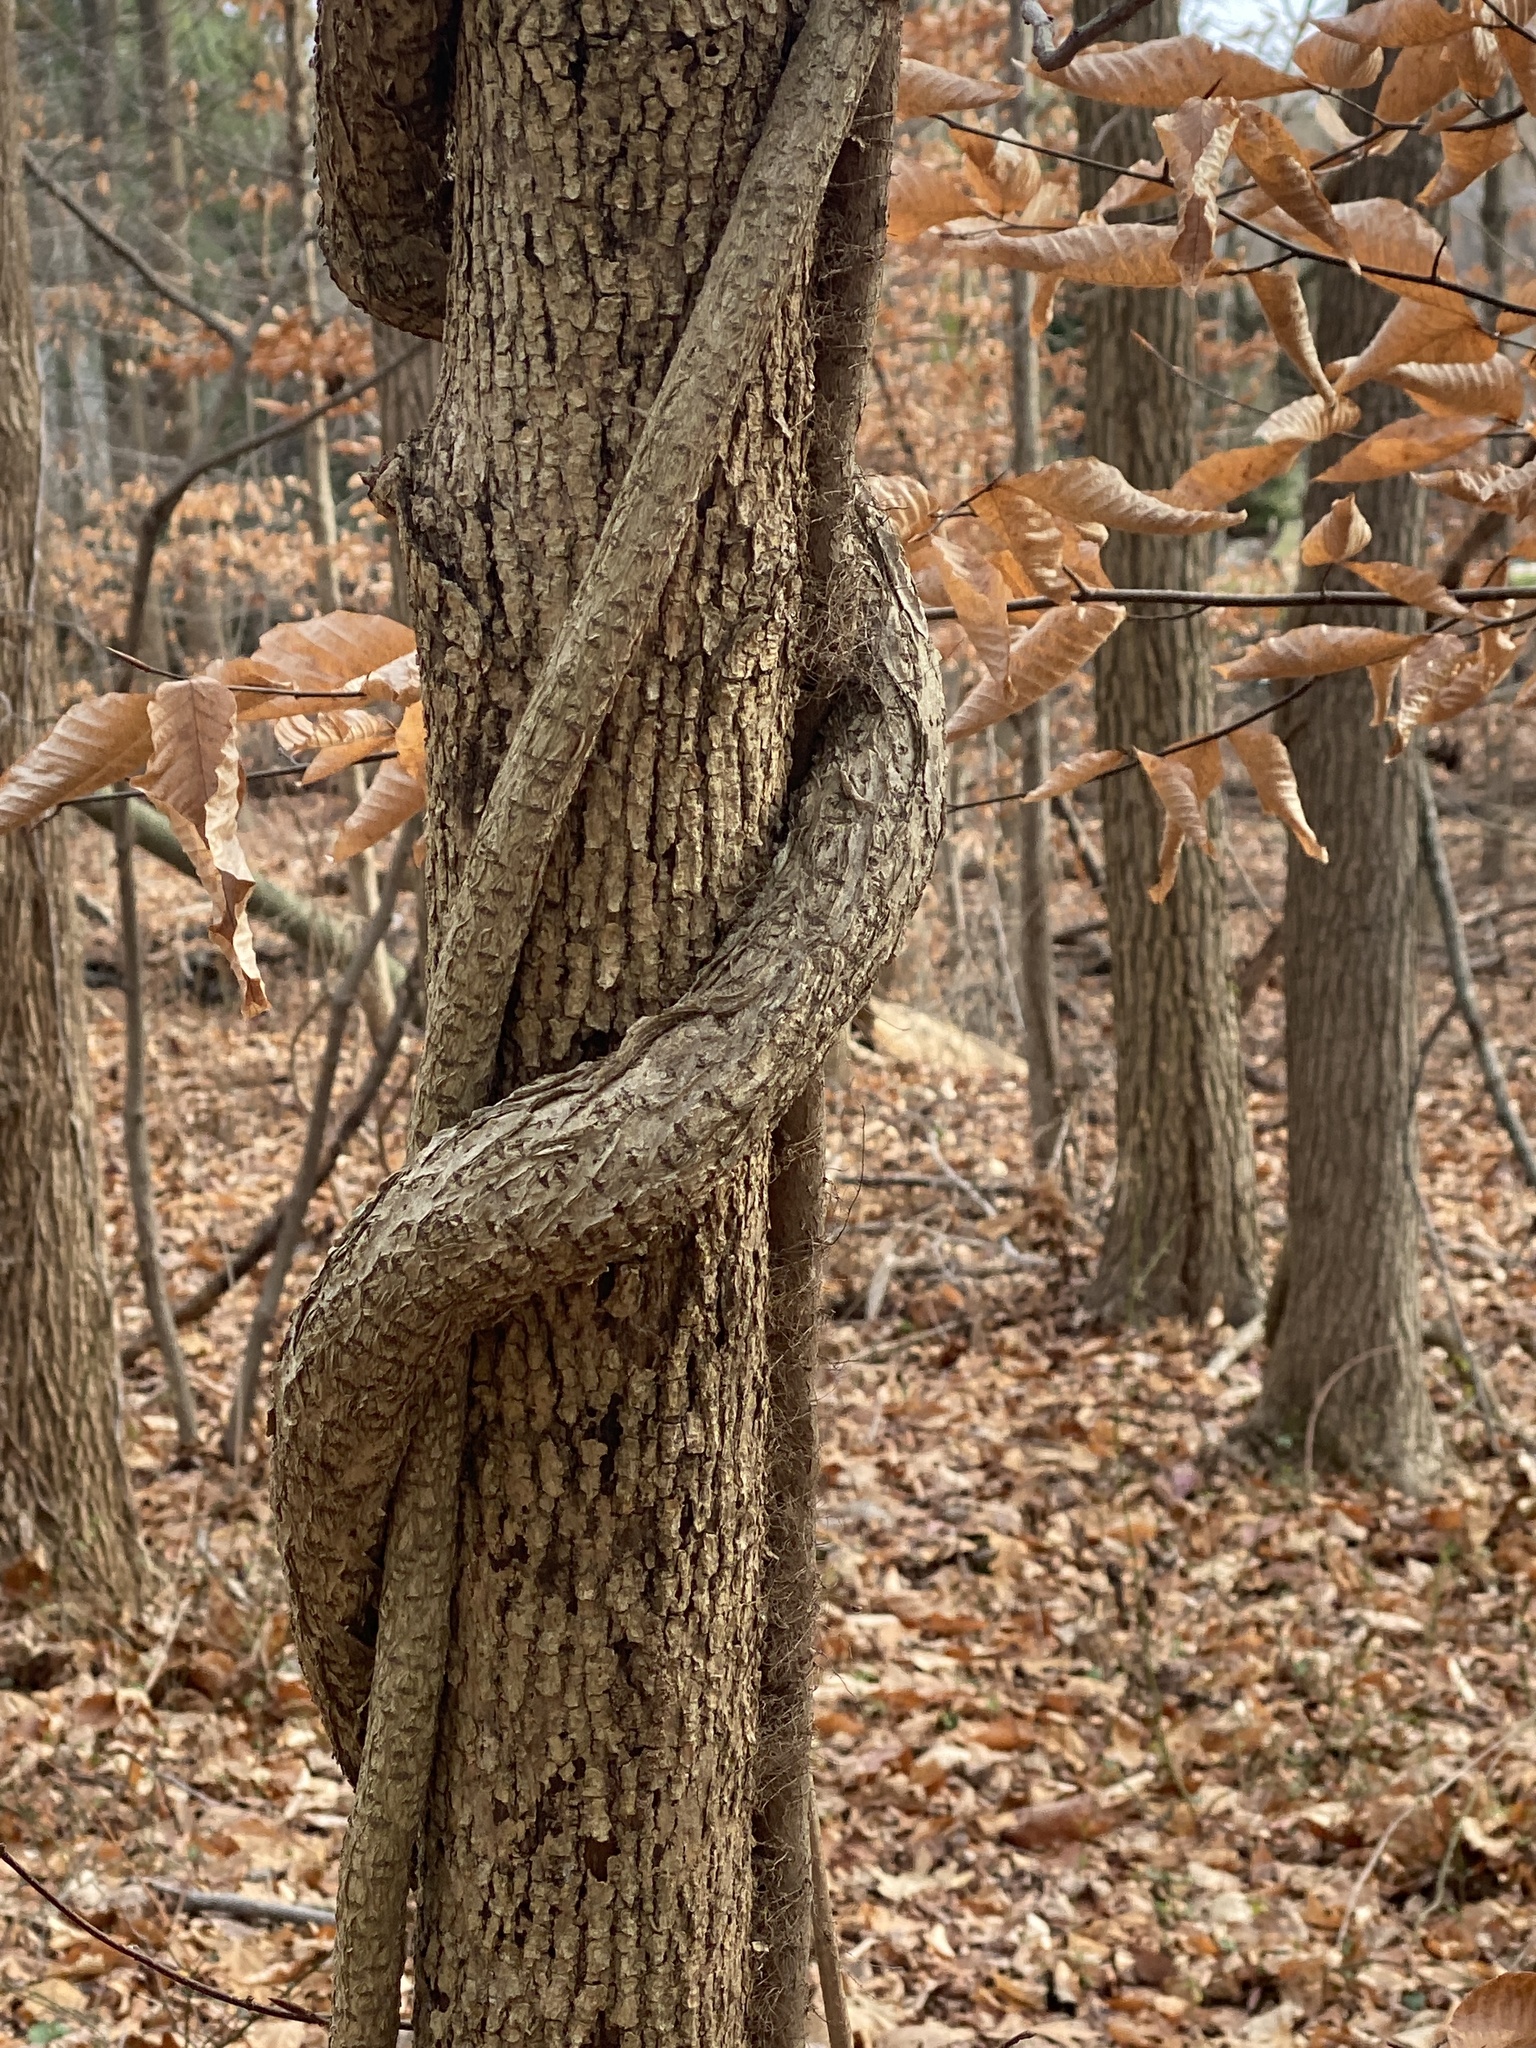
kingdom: Plantae
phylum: Tracheophyta
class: Magnoliopsida
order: Celastrales
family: Celastraceae
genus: Celastrus
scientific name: Celastrus orbiculatus
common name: Oriental bittersweet
